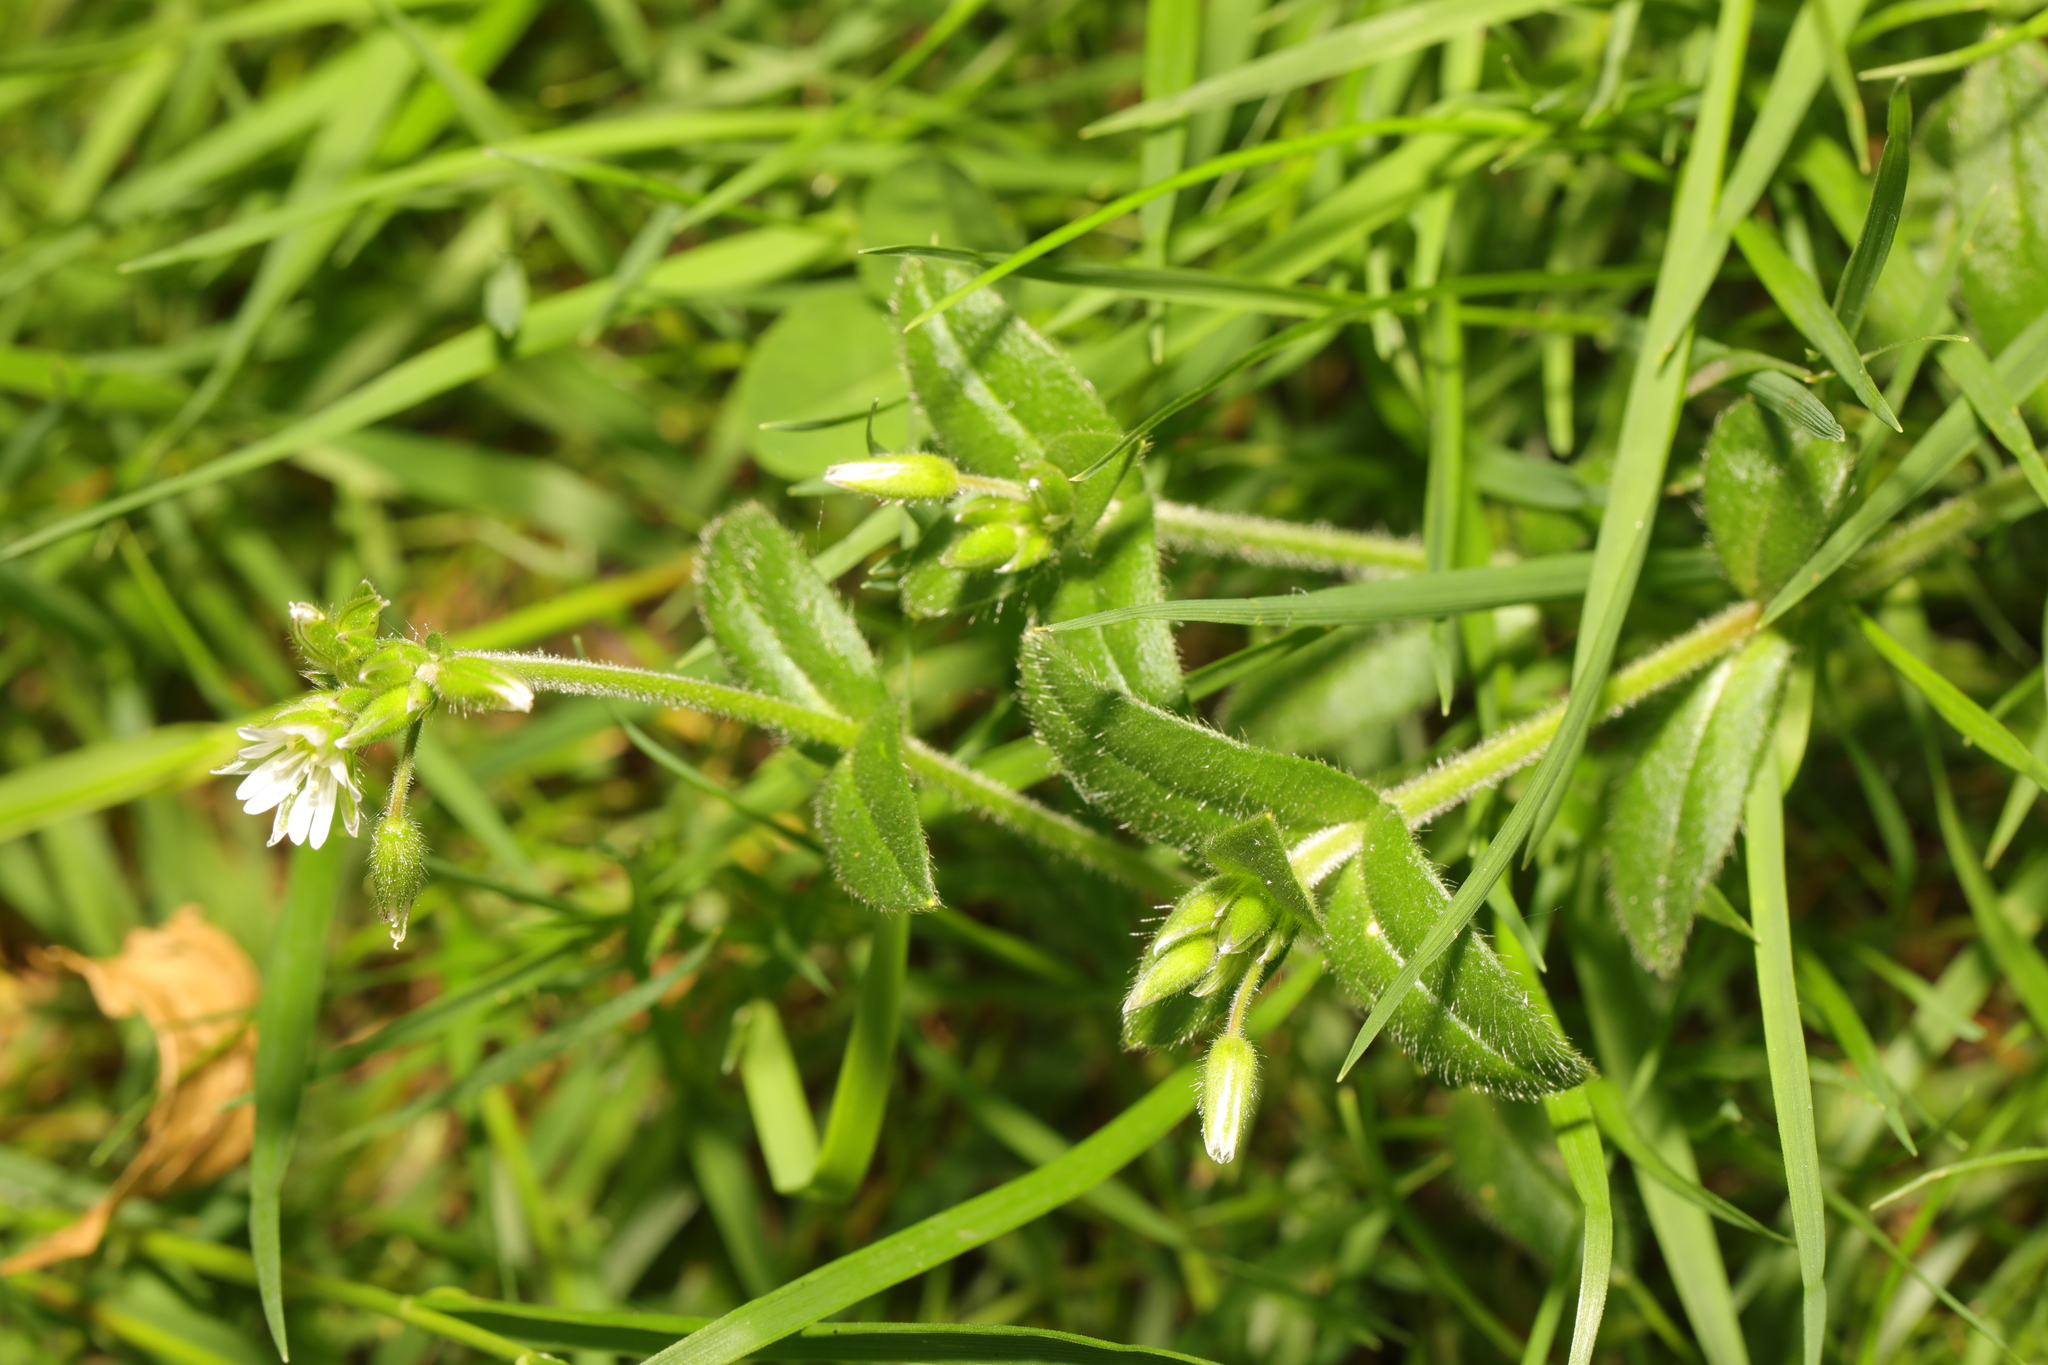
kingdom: Plantae
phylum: Tracheophyta
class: Magnoliopsida
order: Caryophyllales
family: Caryophyllaceae
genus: Cerastium
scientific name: Cerastium fontanum
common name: Common mouse-ear
